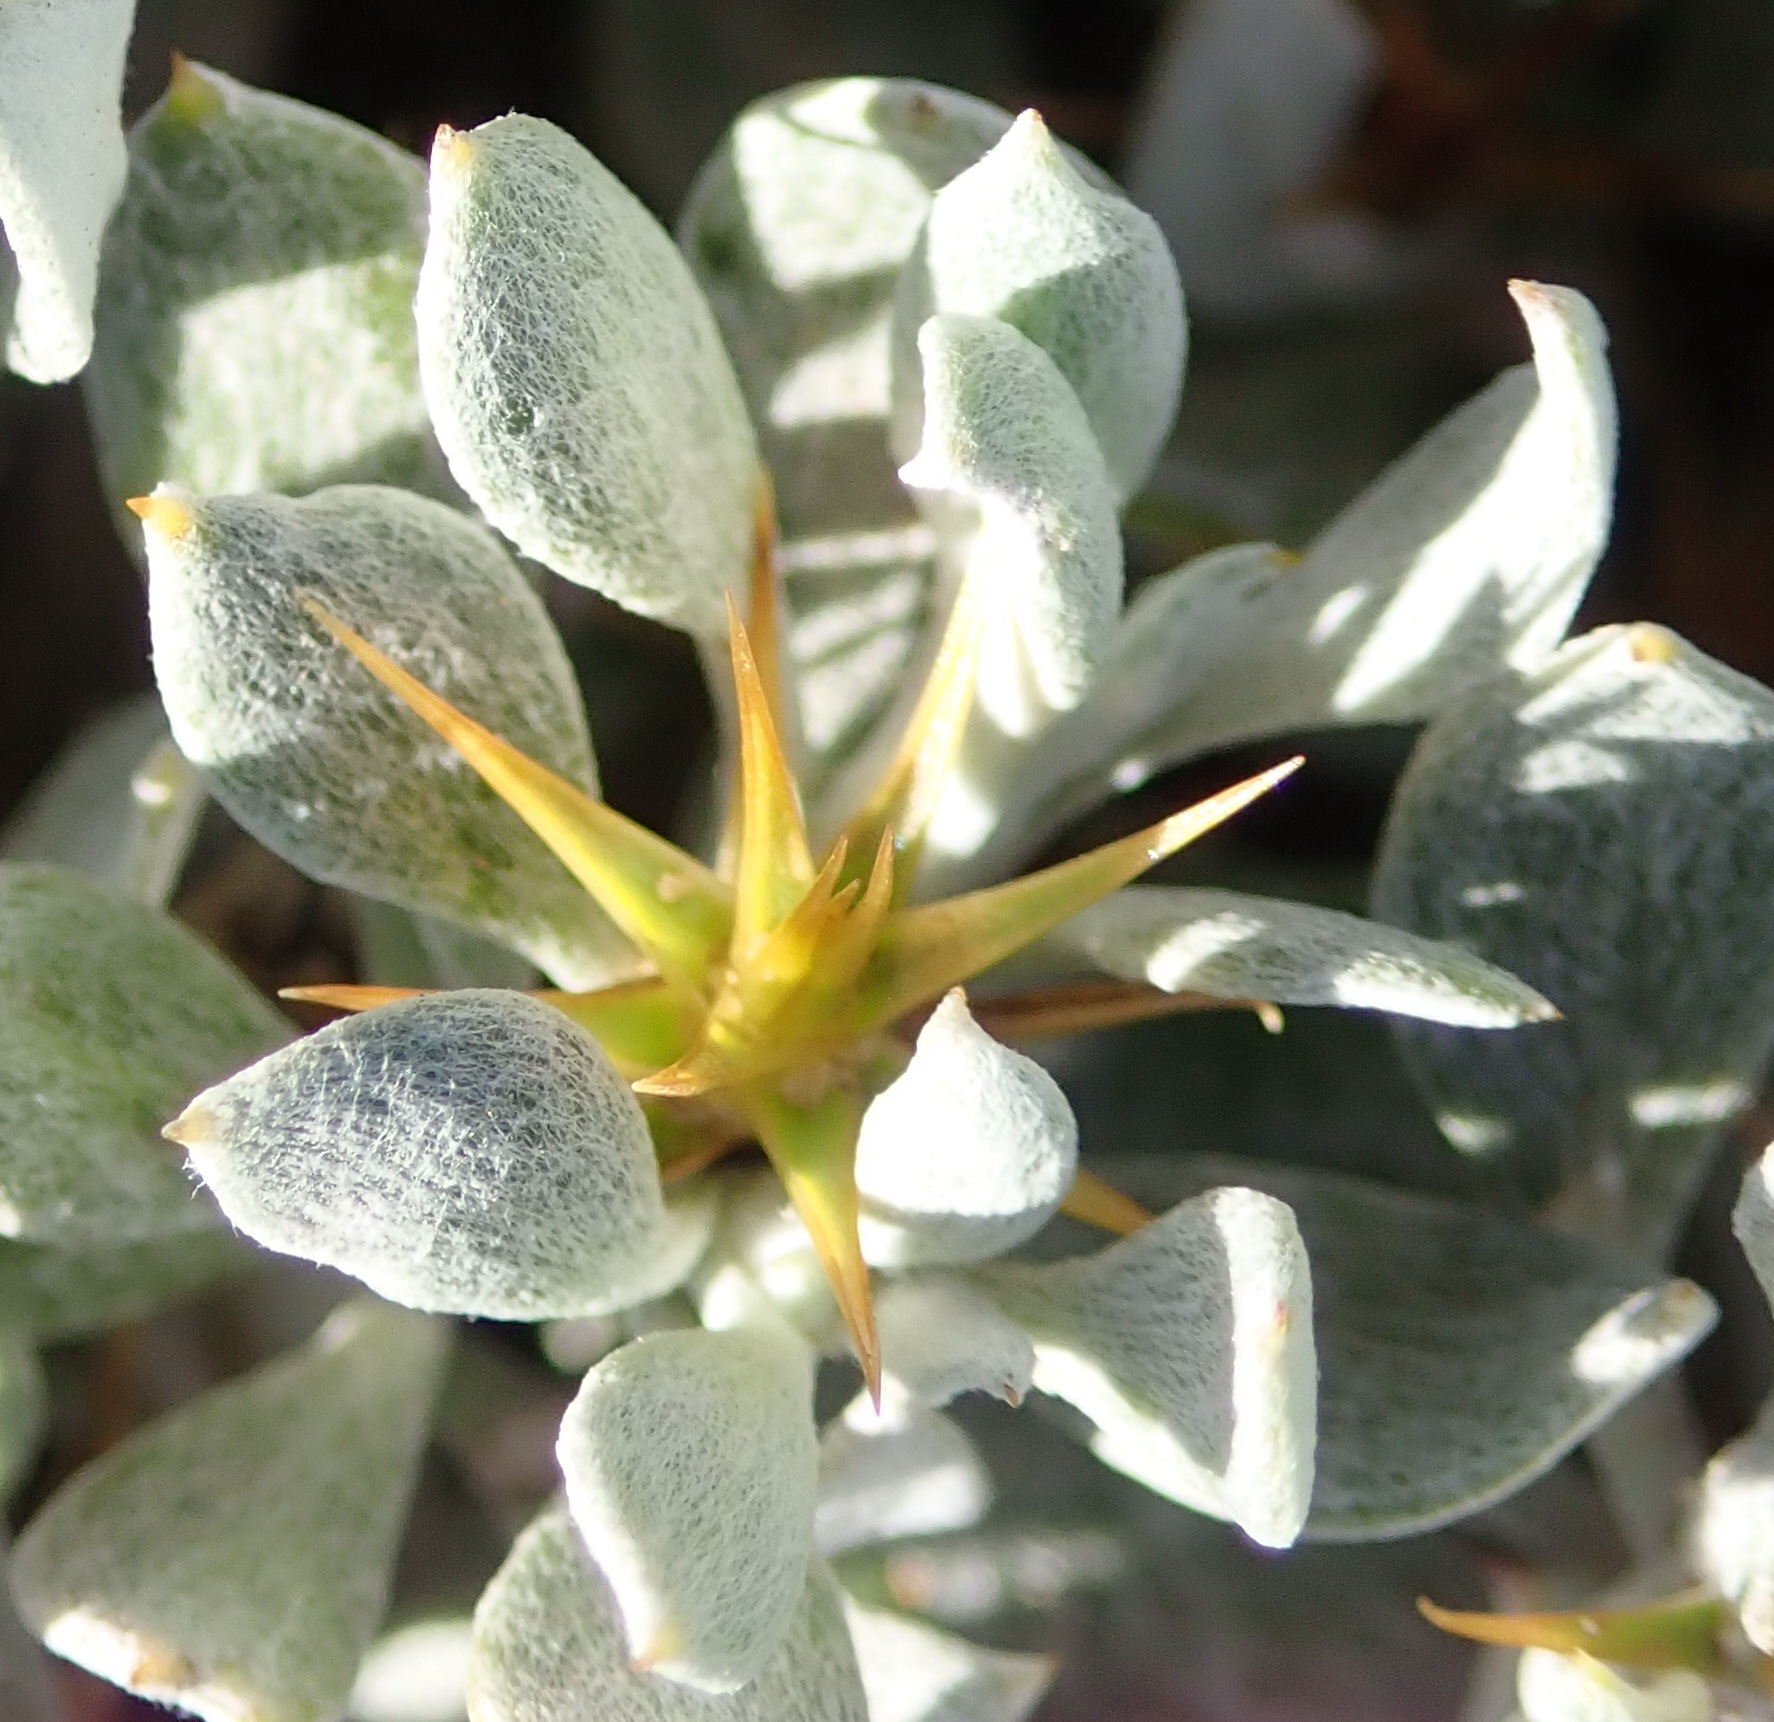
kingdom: Plantae
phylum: Tracheophyta
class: Magnoliopsida
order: Asterales
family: Asteraceae
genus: Macledium
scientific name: Macledium spinosum
